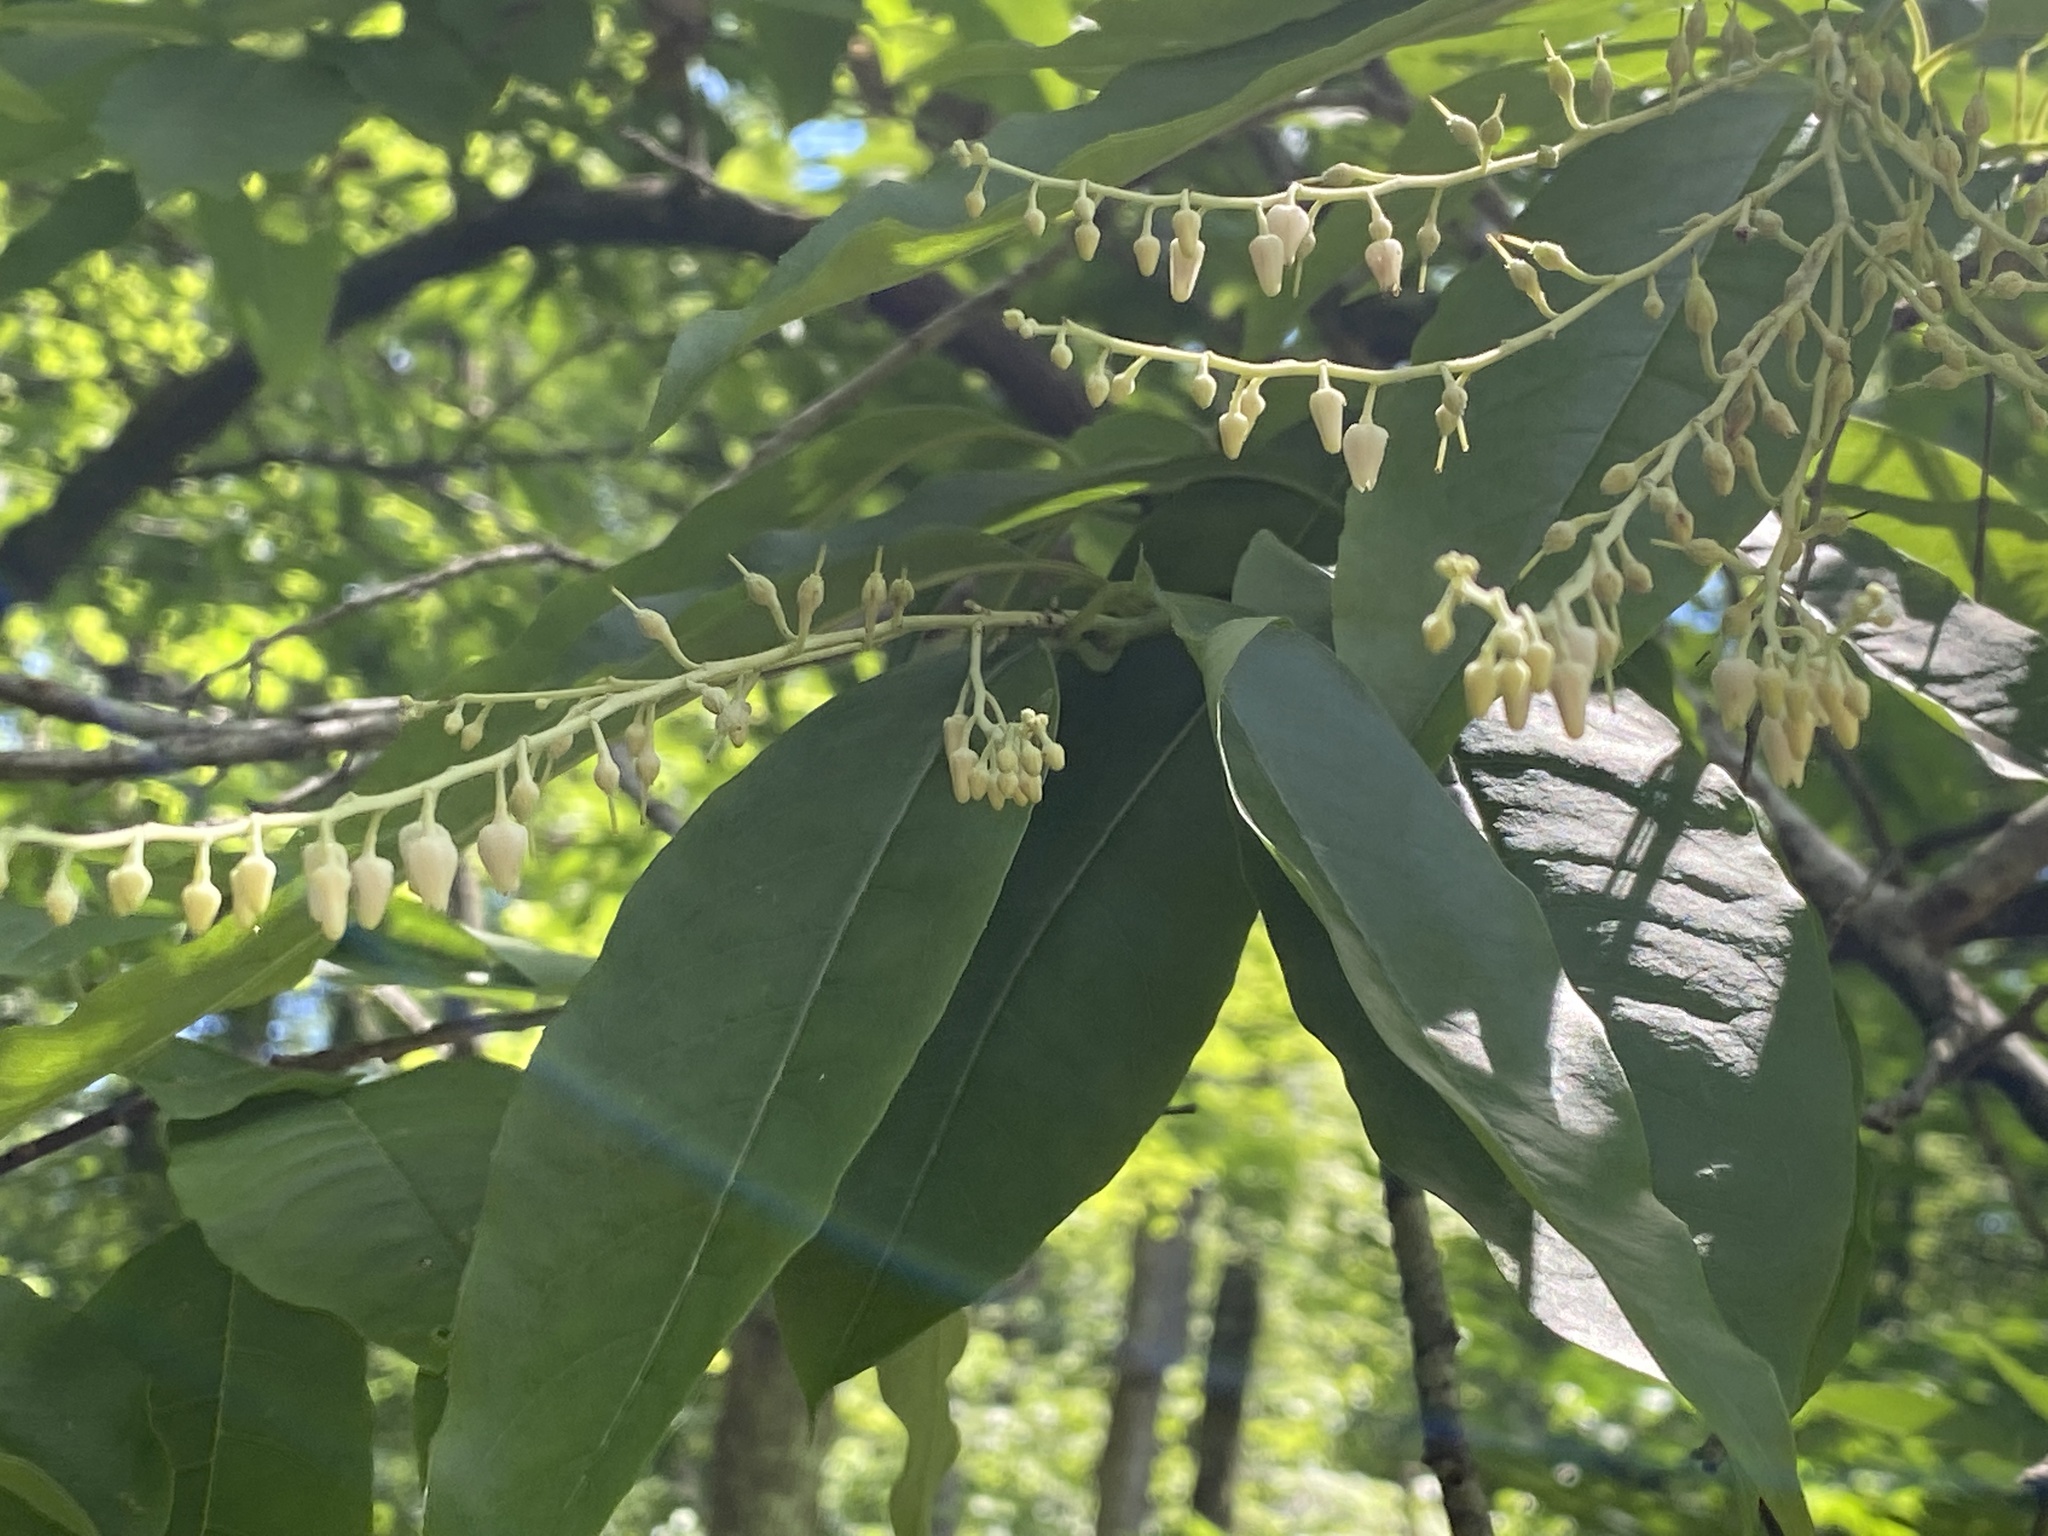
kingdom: Plantae
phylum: Tracheophyta
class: Magnoliopsida
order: Ericales
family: Ericaceae
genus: Oxydendrum
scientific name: Oxydendrum arboreum
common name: Sourwood
